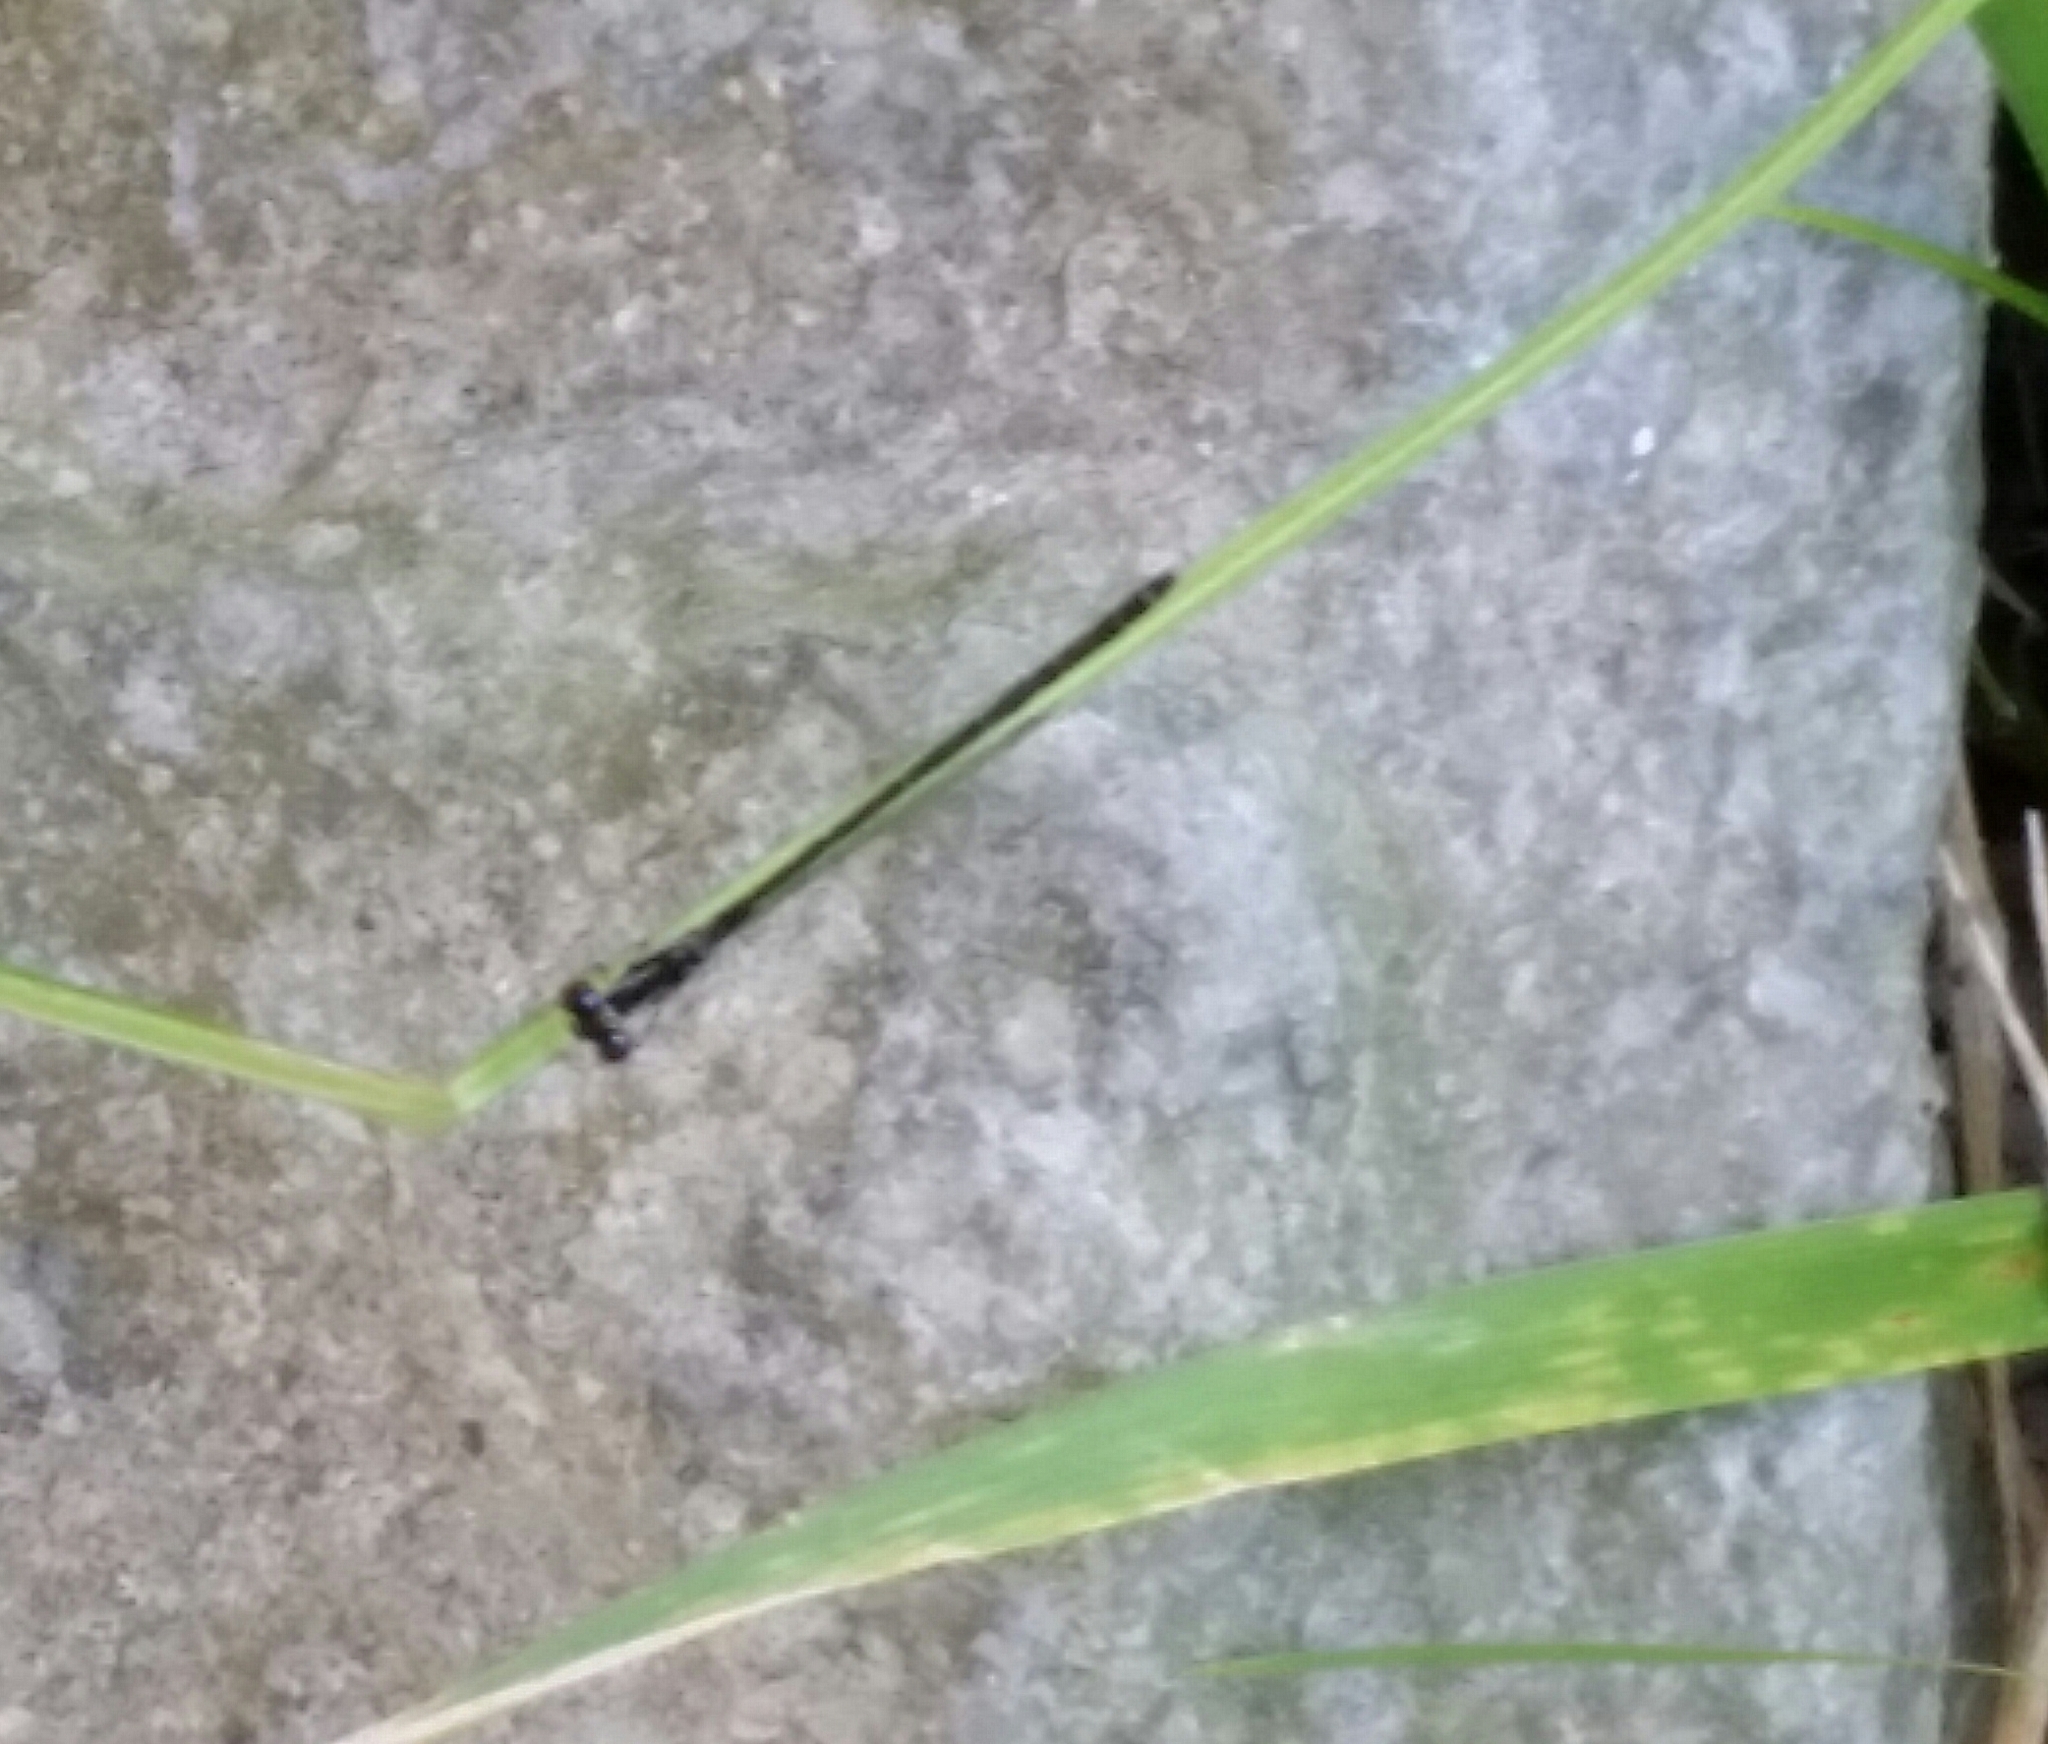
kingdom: Animalia
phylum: Arthropoda
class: Insecta
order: Odonata
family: Coenagrionidae
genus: Ischnura
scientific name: Ischnura posita
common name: Fragile forktail
